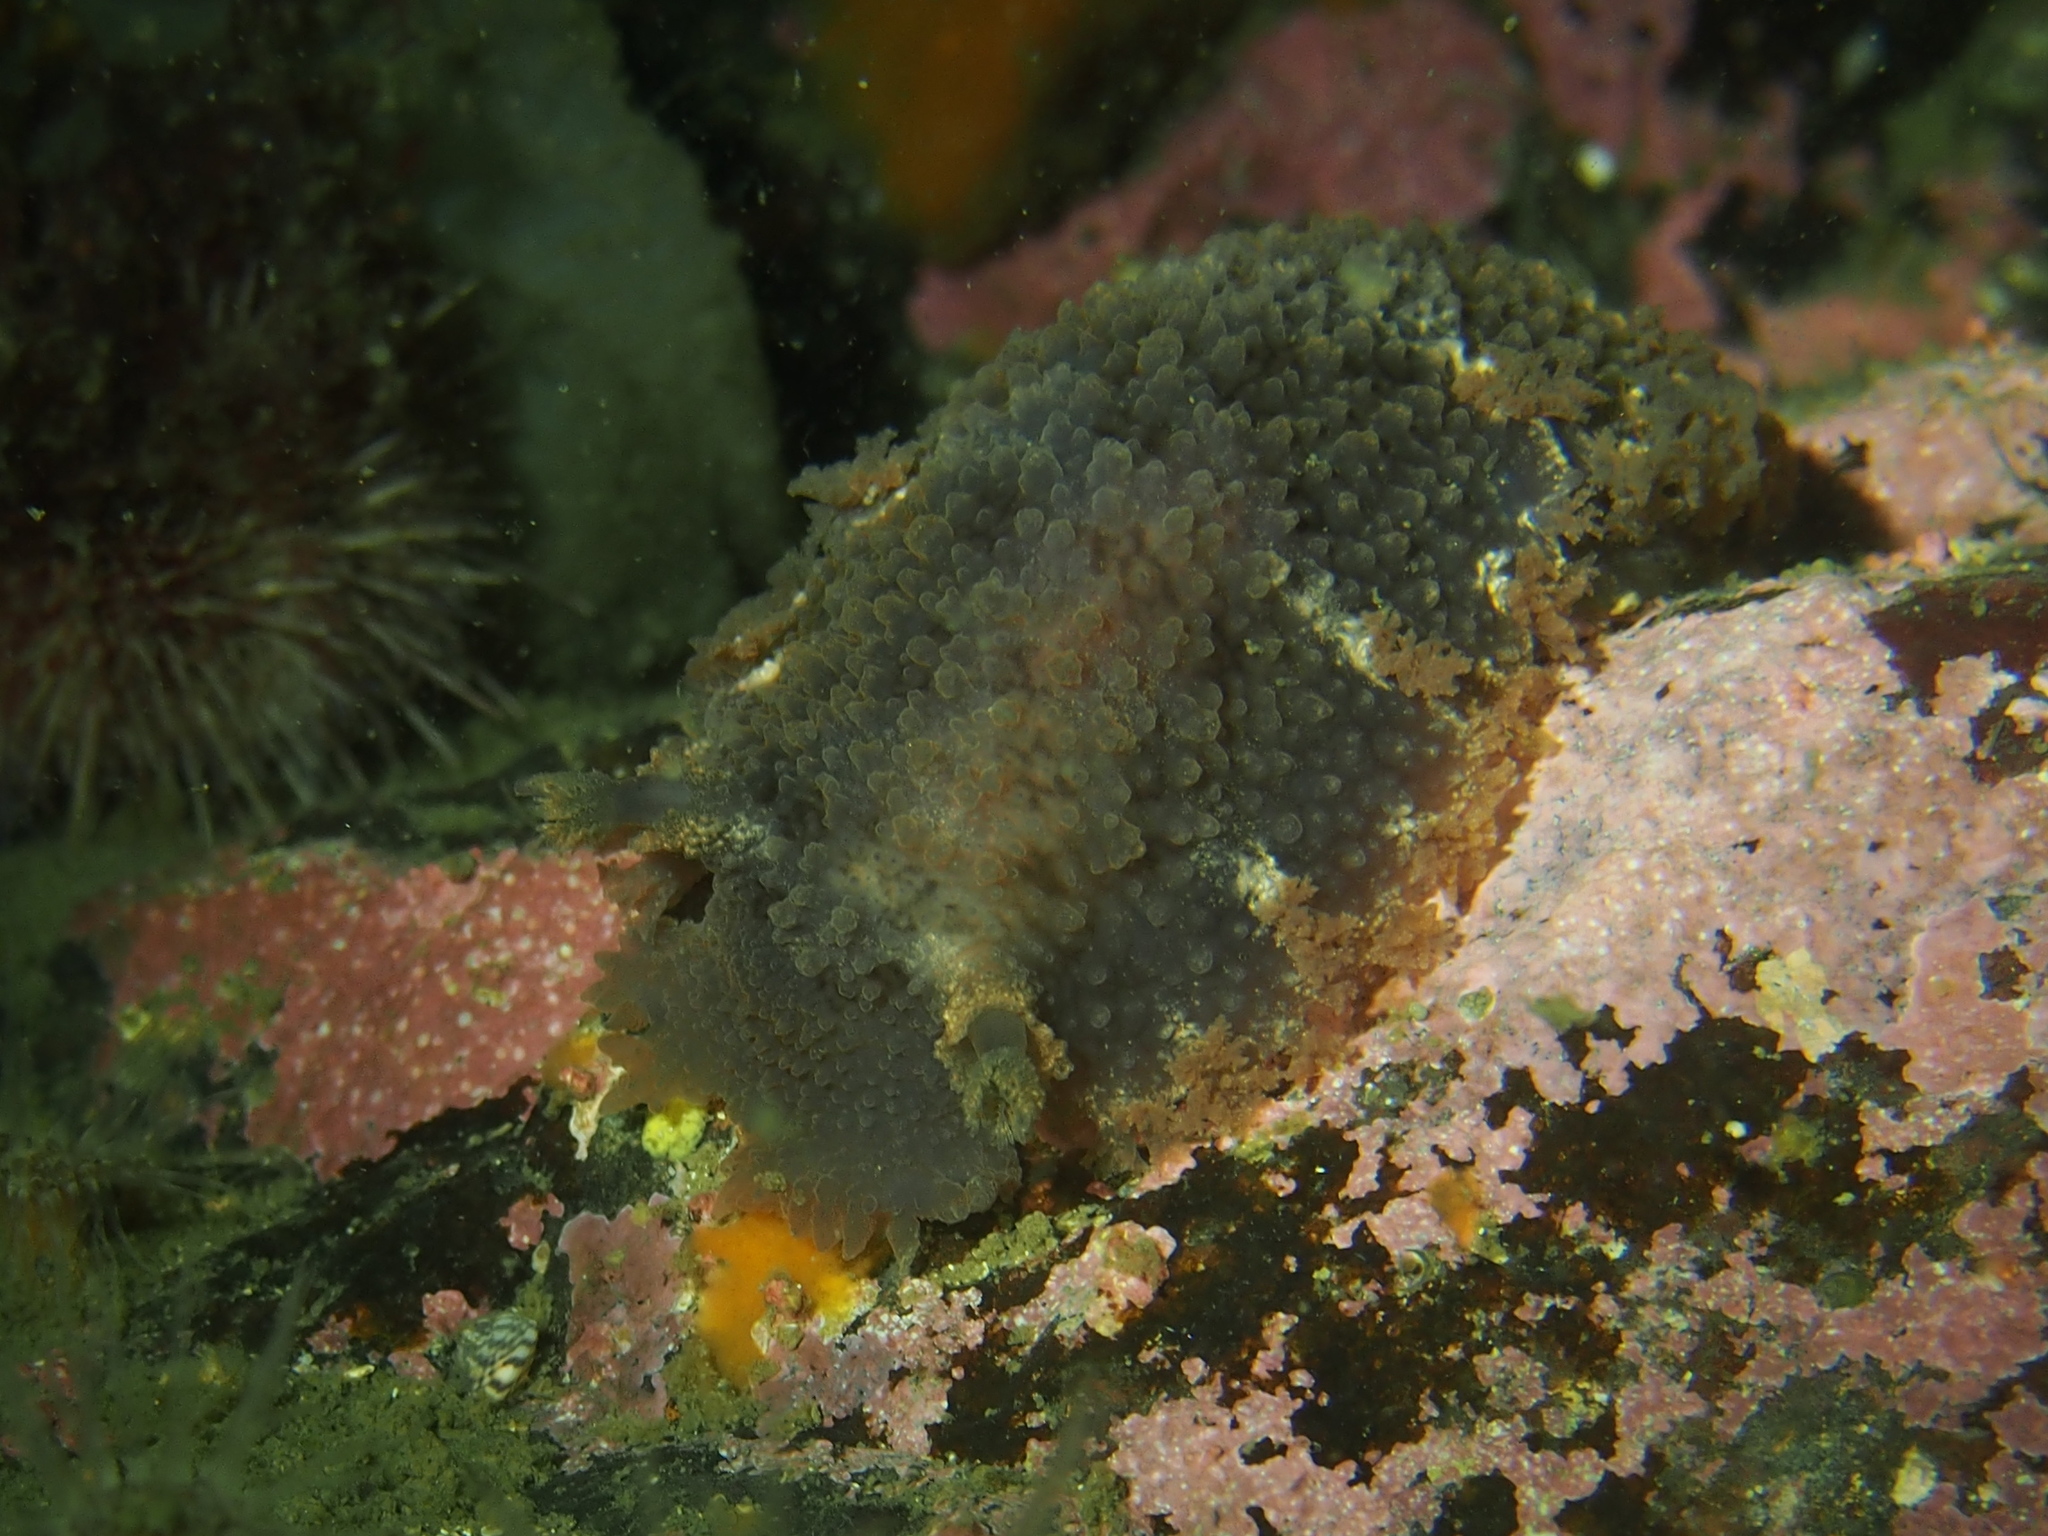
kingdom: Animalia
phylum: Mollusca
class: Gastropoda
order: Nudibranchia
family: Tritoniidae
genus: Tritonia
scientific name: Tritonia hombergii
